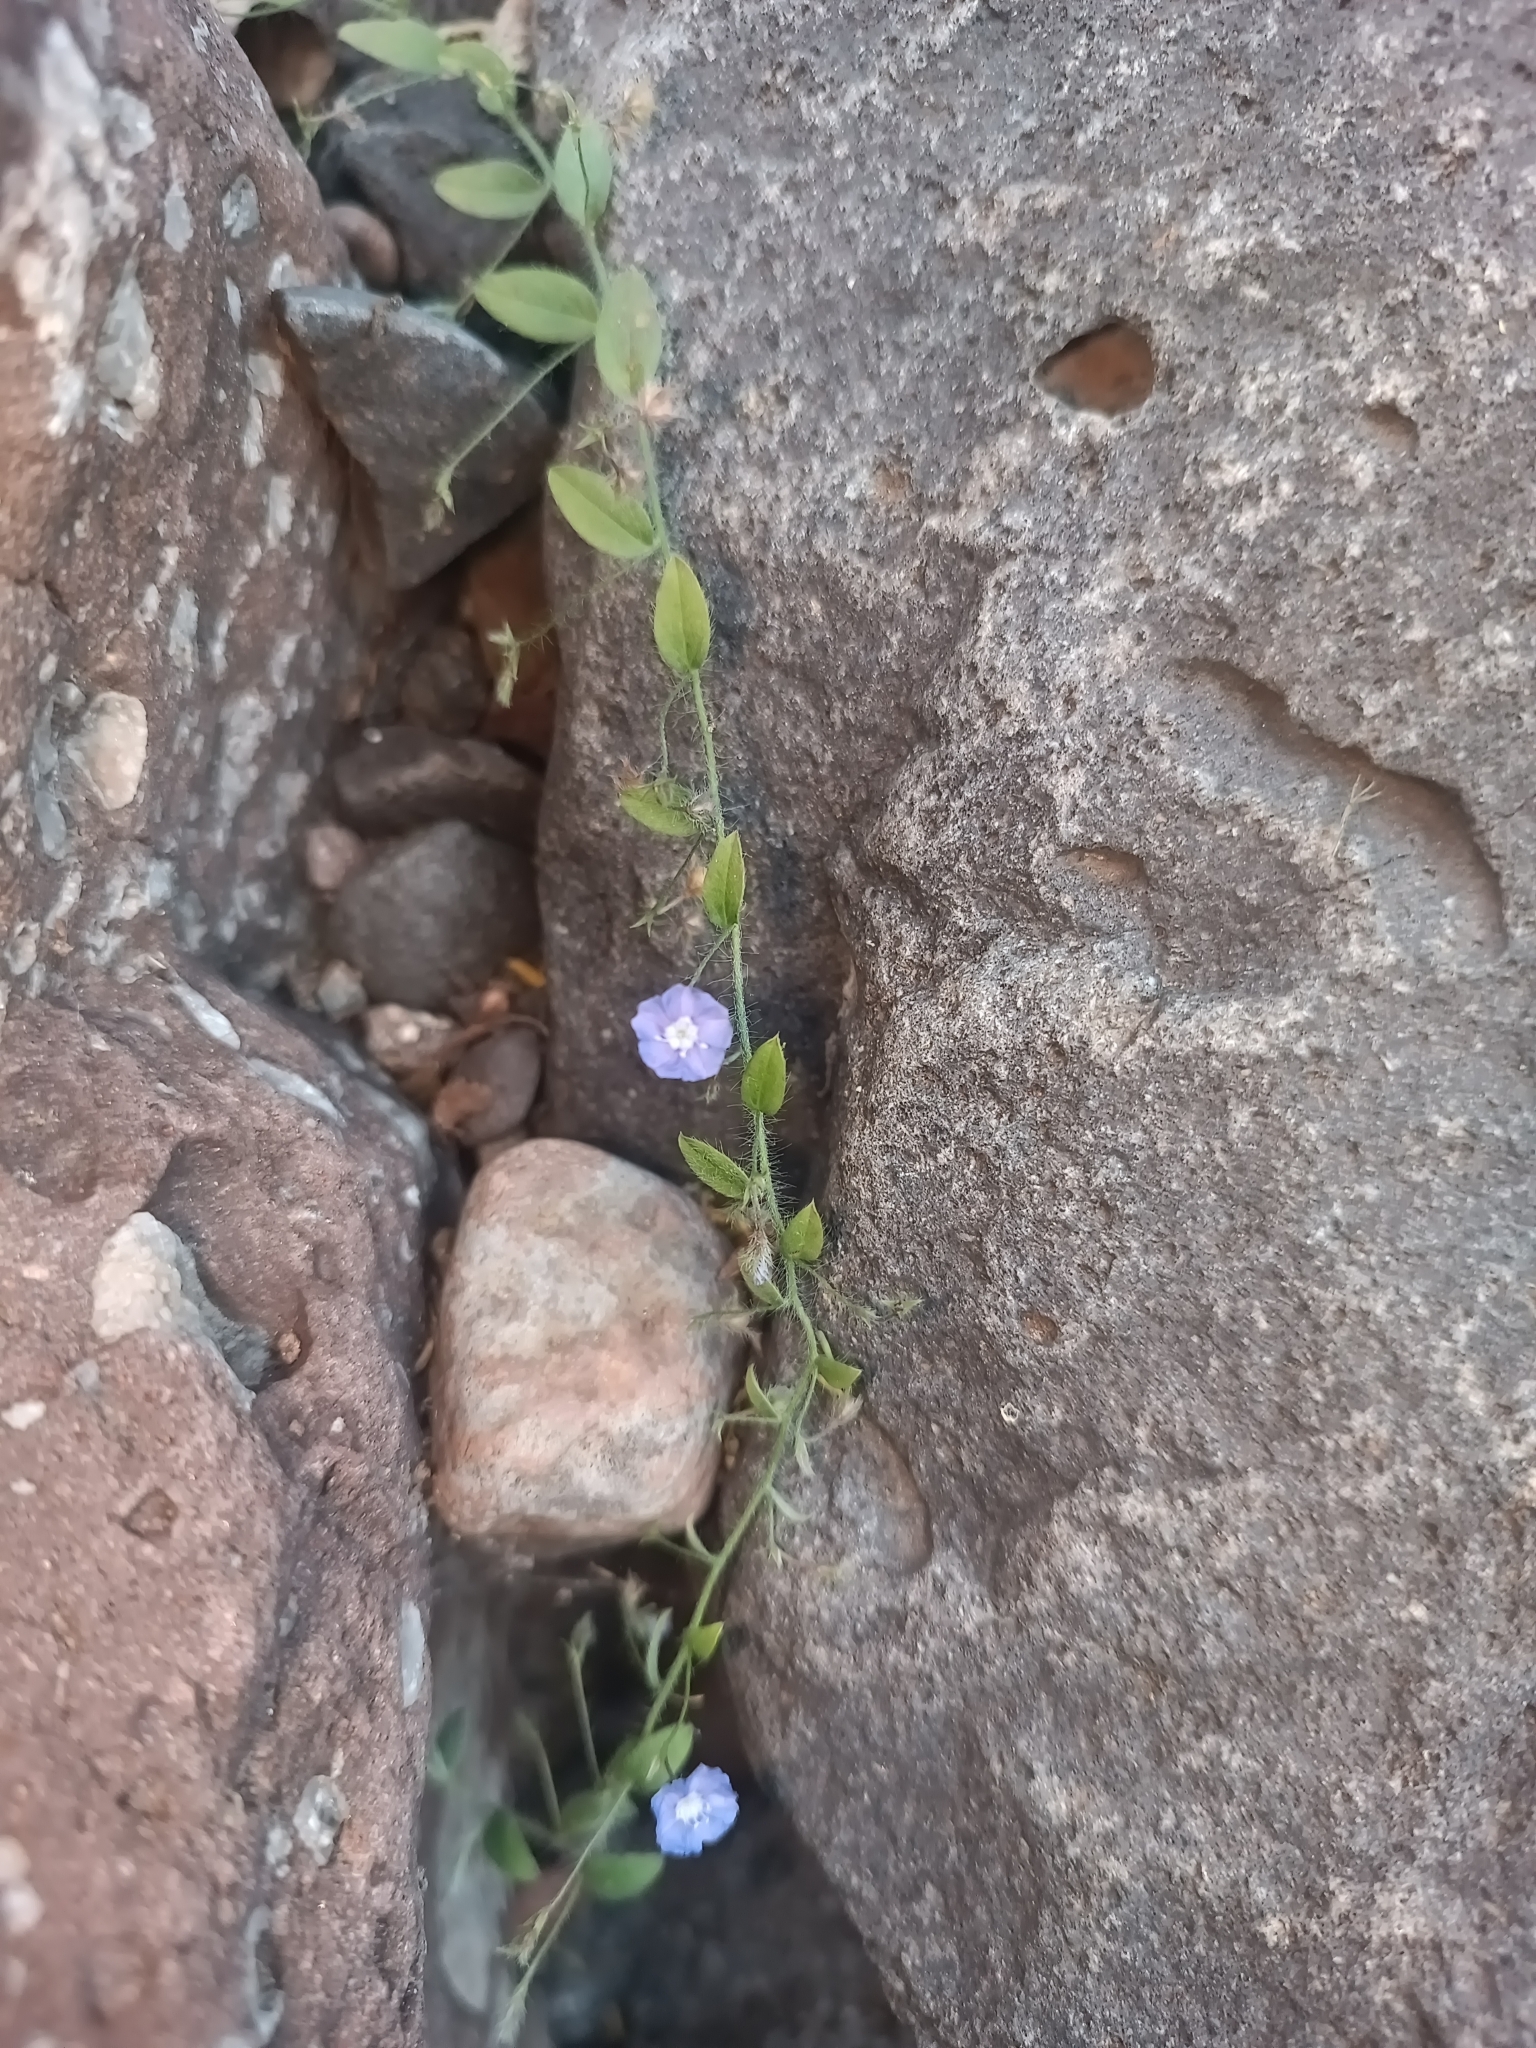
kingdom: Plantae
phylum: Tracheophyta
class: Magnoliopsida
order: Solanales
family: Convolvulaceae
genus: Evolvulus
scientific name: Evolvulus alsinoides
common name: Slender dwarf morning-glory
